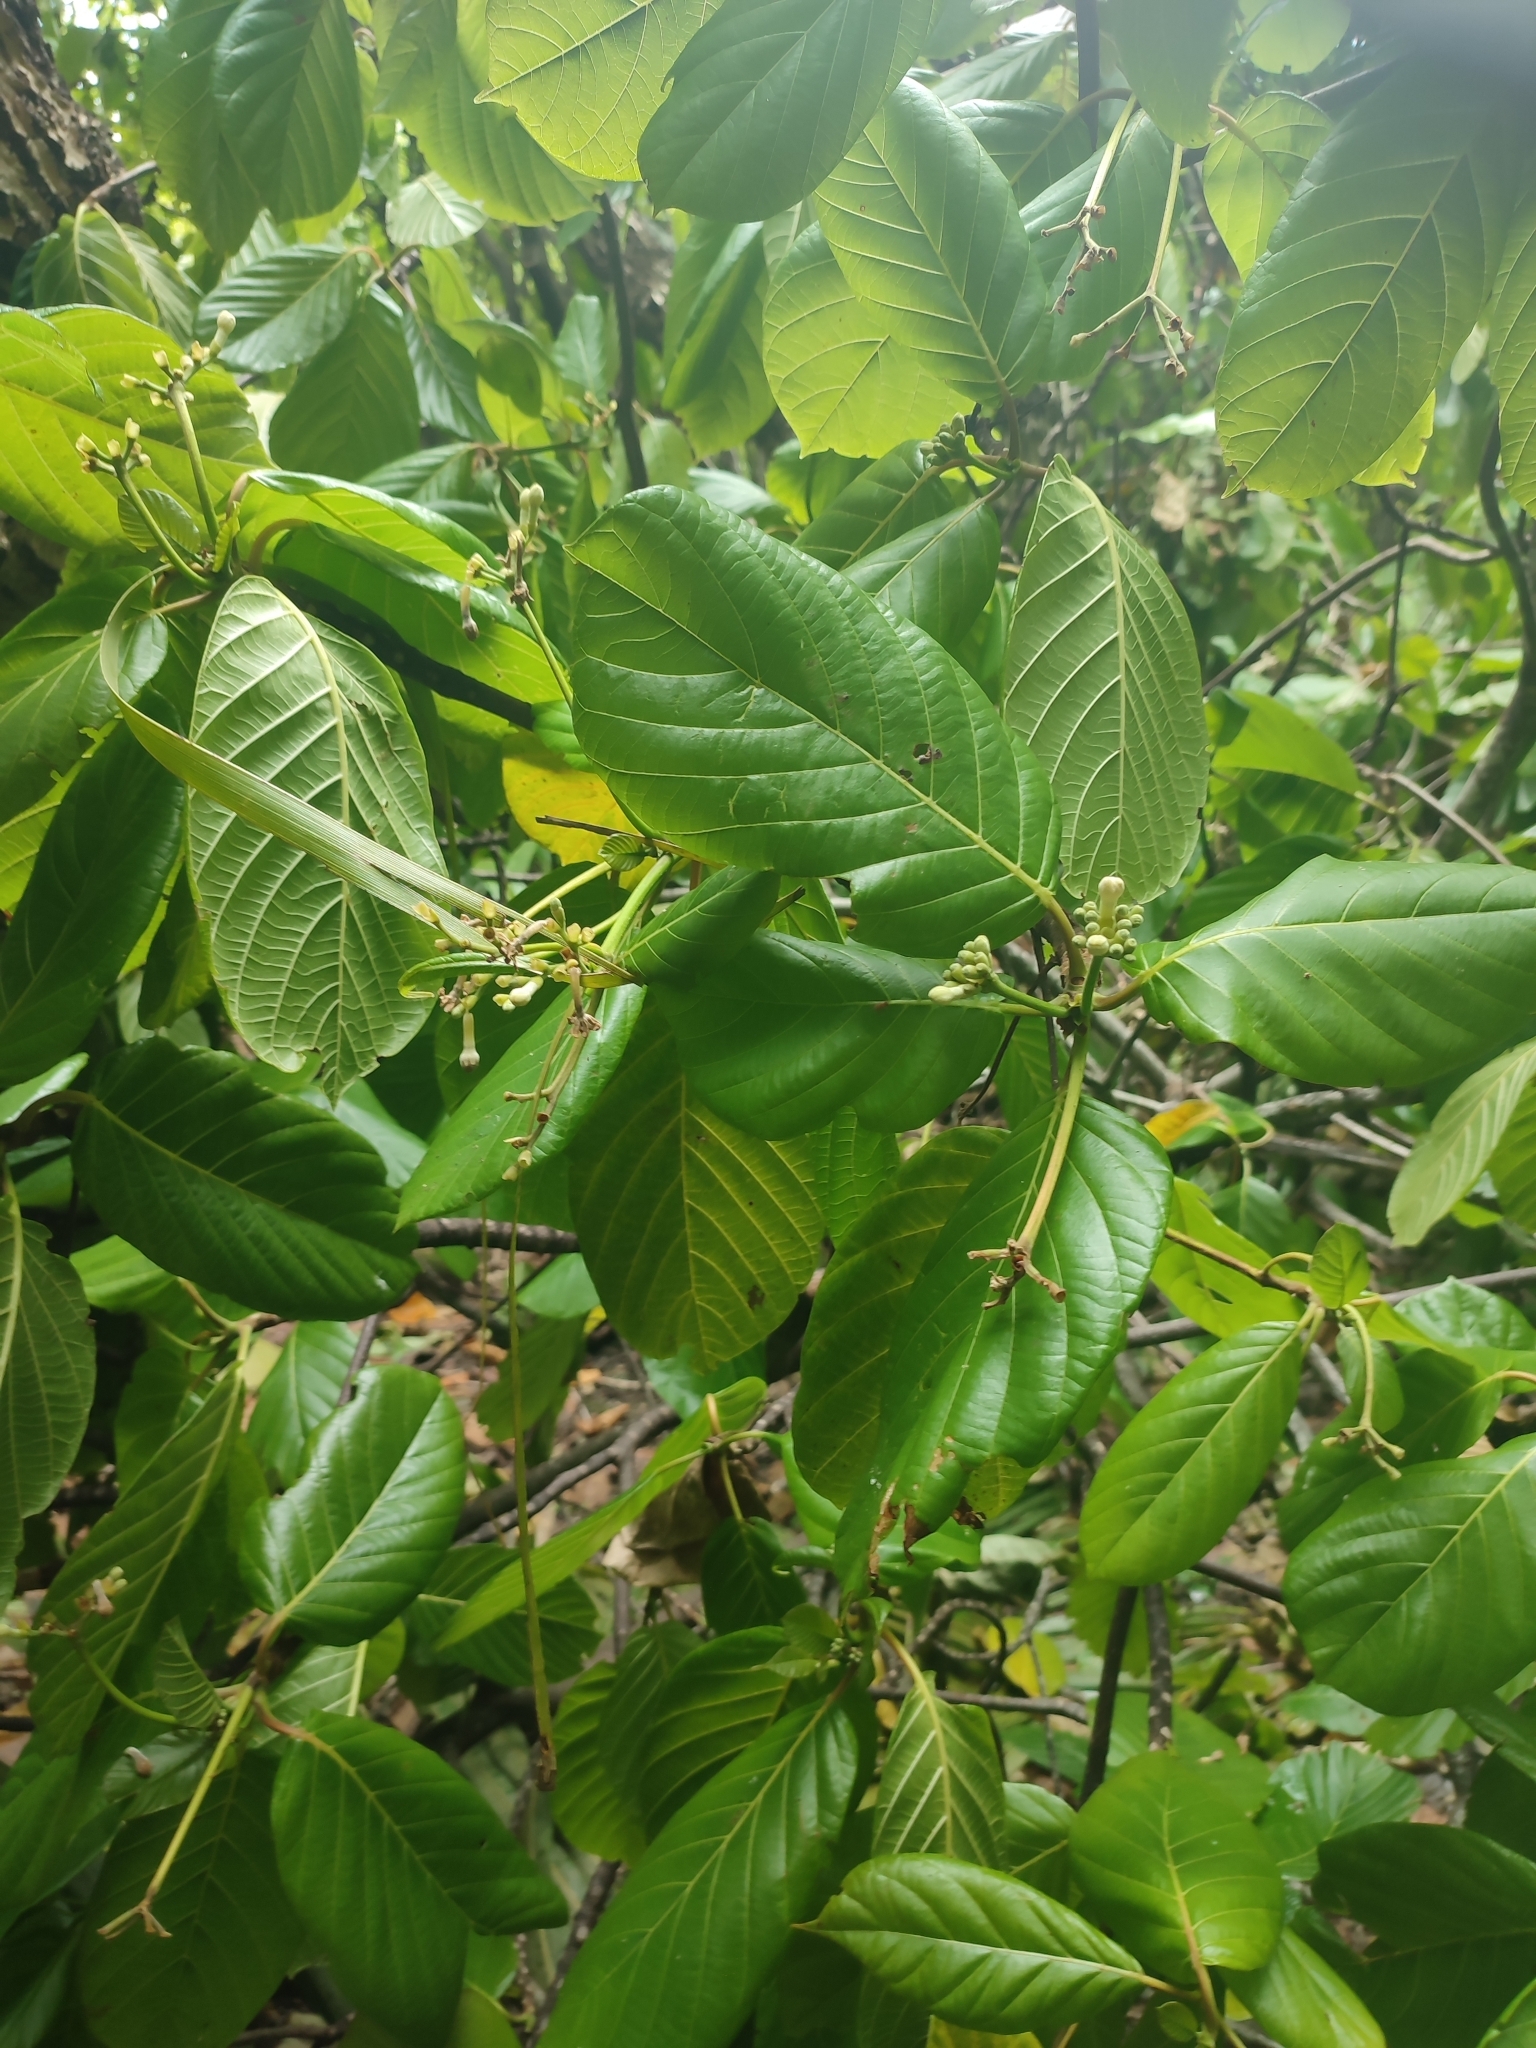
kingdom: Plantae
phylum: Tracheophyta
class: Magnoliopsida
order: Gentianales
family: Rubiaceae
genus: Guettarda
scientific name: Guettarda speciosa
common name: Sea randa
